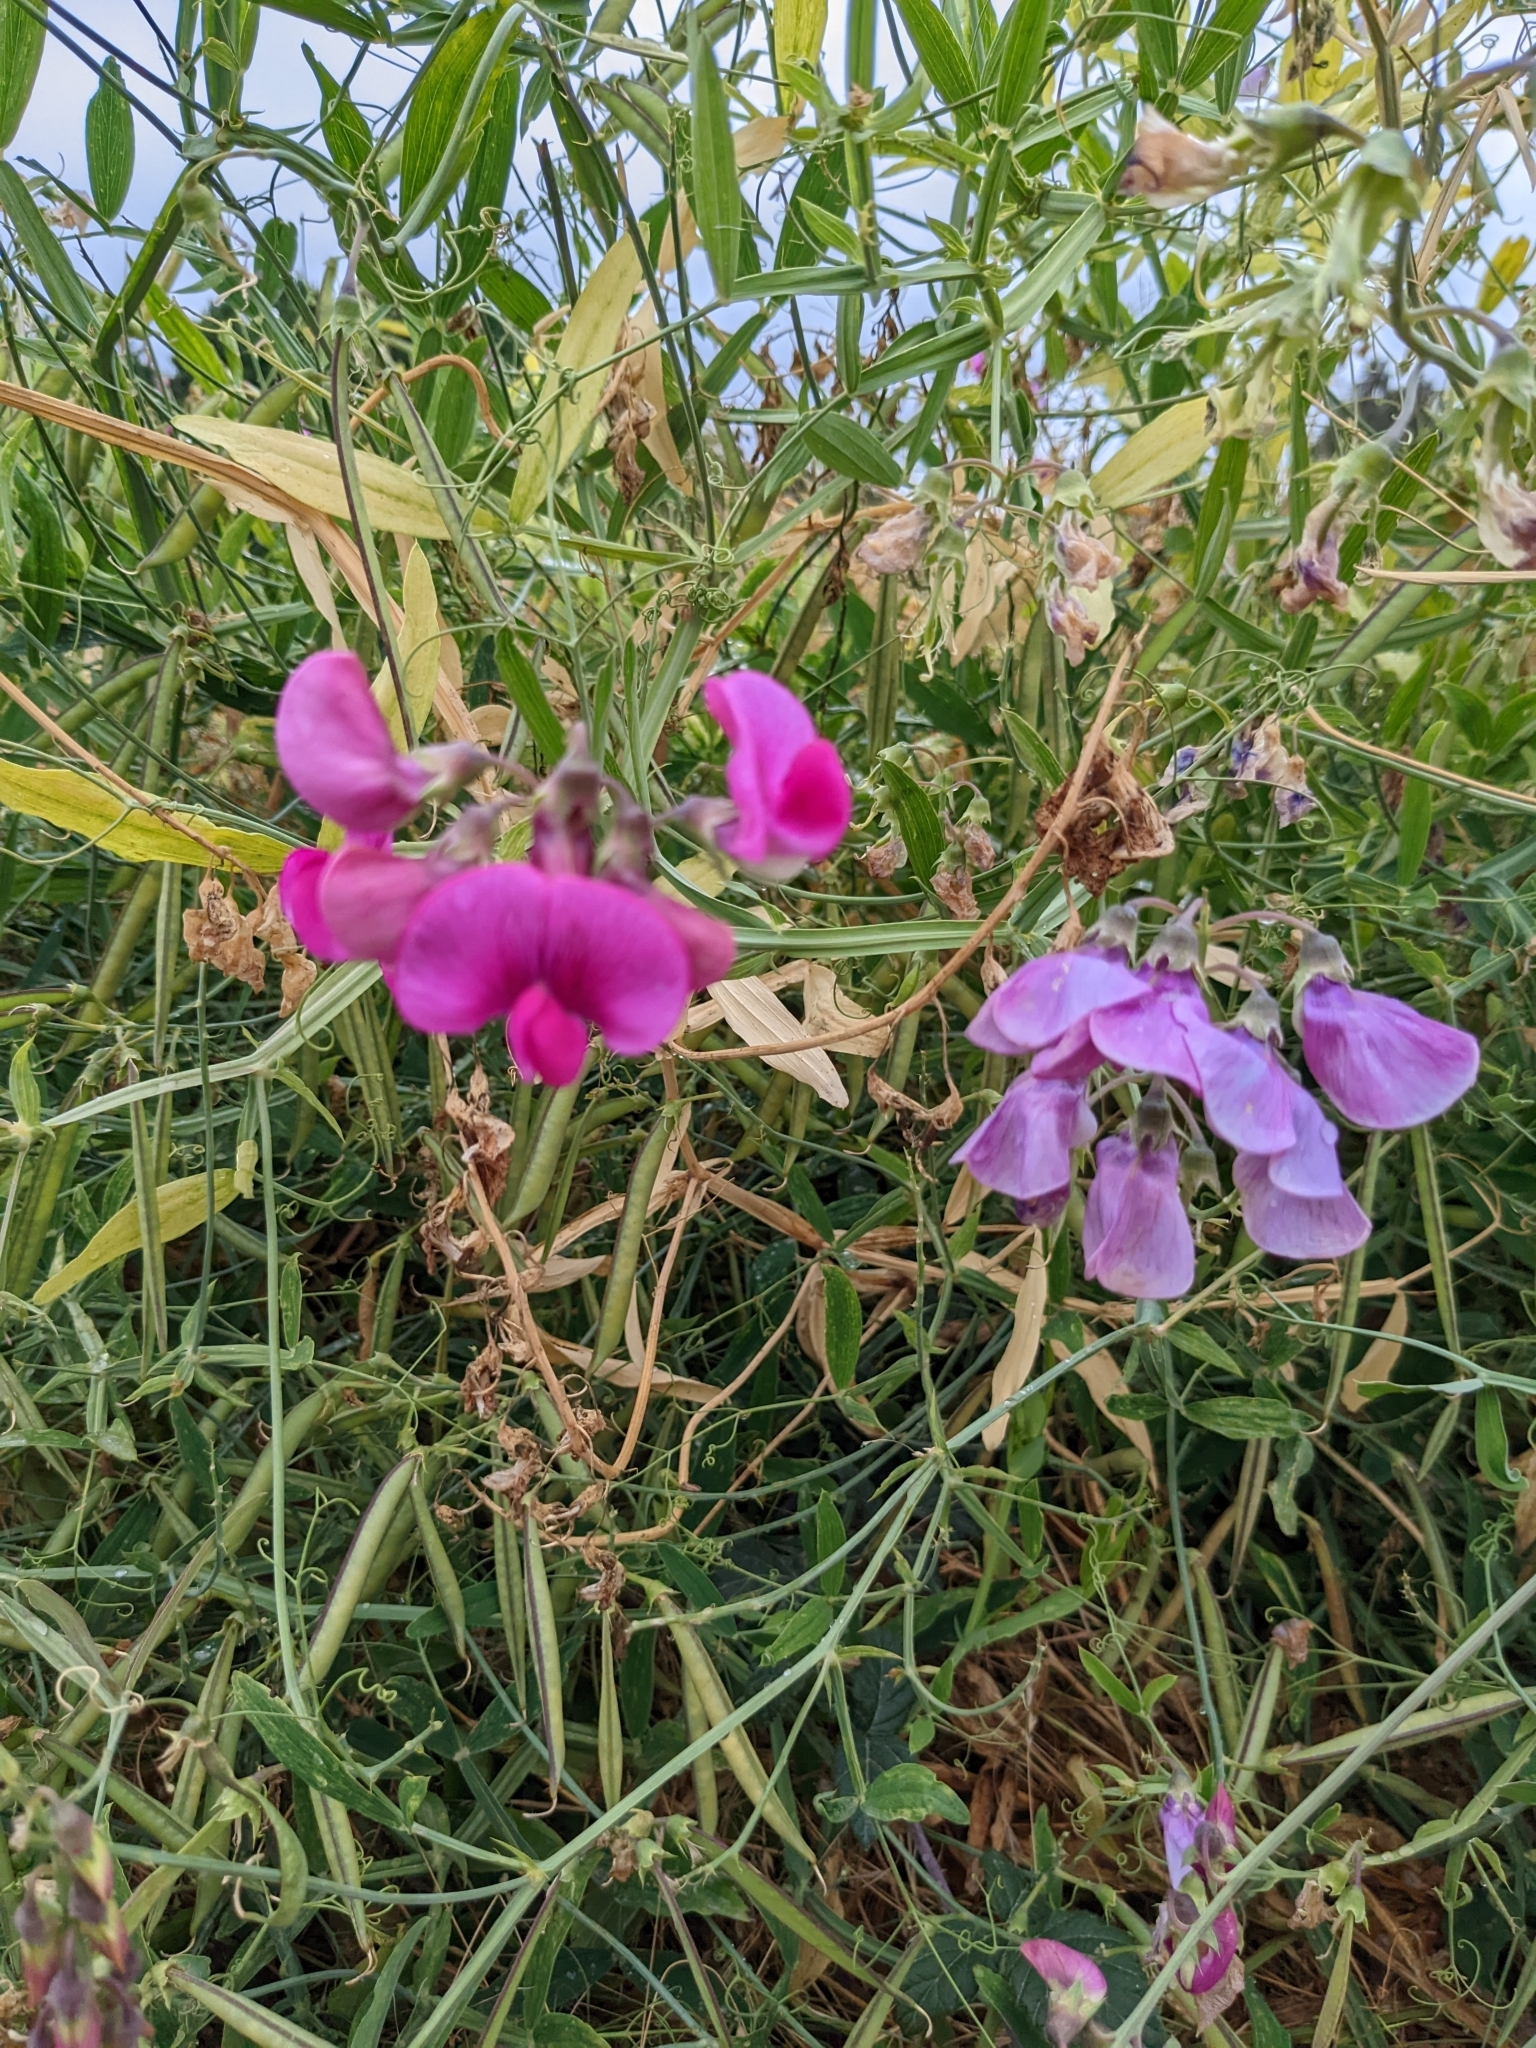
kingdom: Plantae
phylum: Tracheophyta
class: Magnoliopsida
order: Fabales
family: Fabaceae
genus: Lathyrus
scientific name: Lathyrus latifolius
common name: Perennial pea
